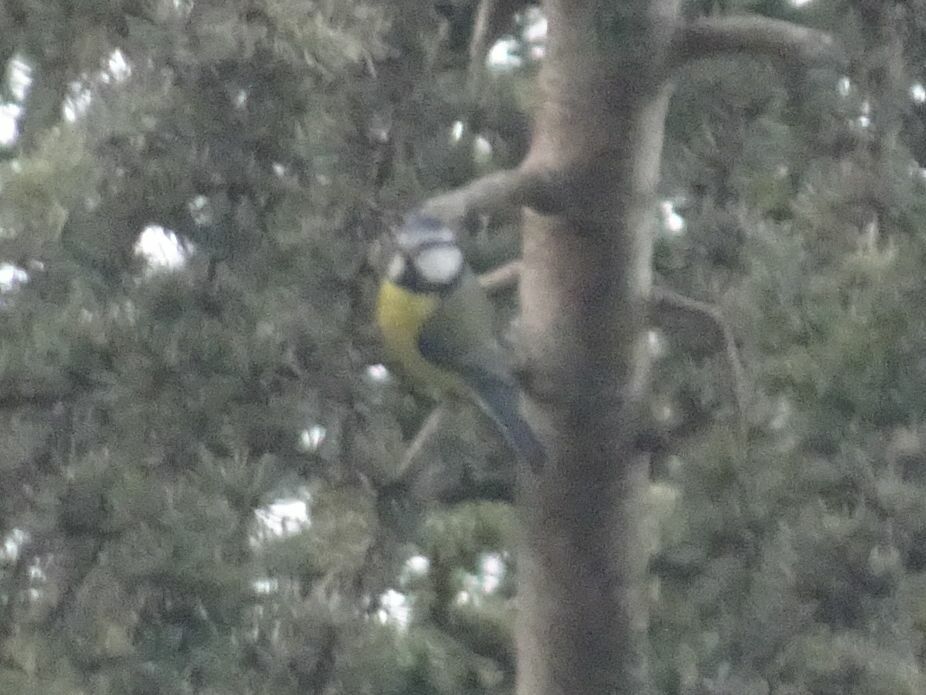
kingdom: Animalia
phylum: Chordata
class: Aves
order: Passeriformes
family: Paridae
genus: Cyanistes
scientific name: Cyanistes caeruleus
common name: Eurasian blue tit
